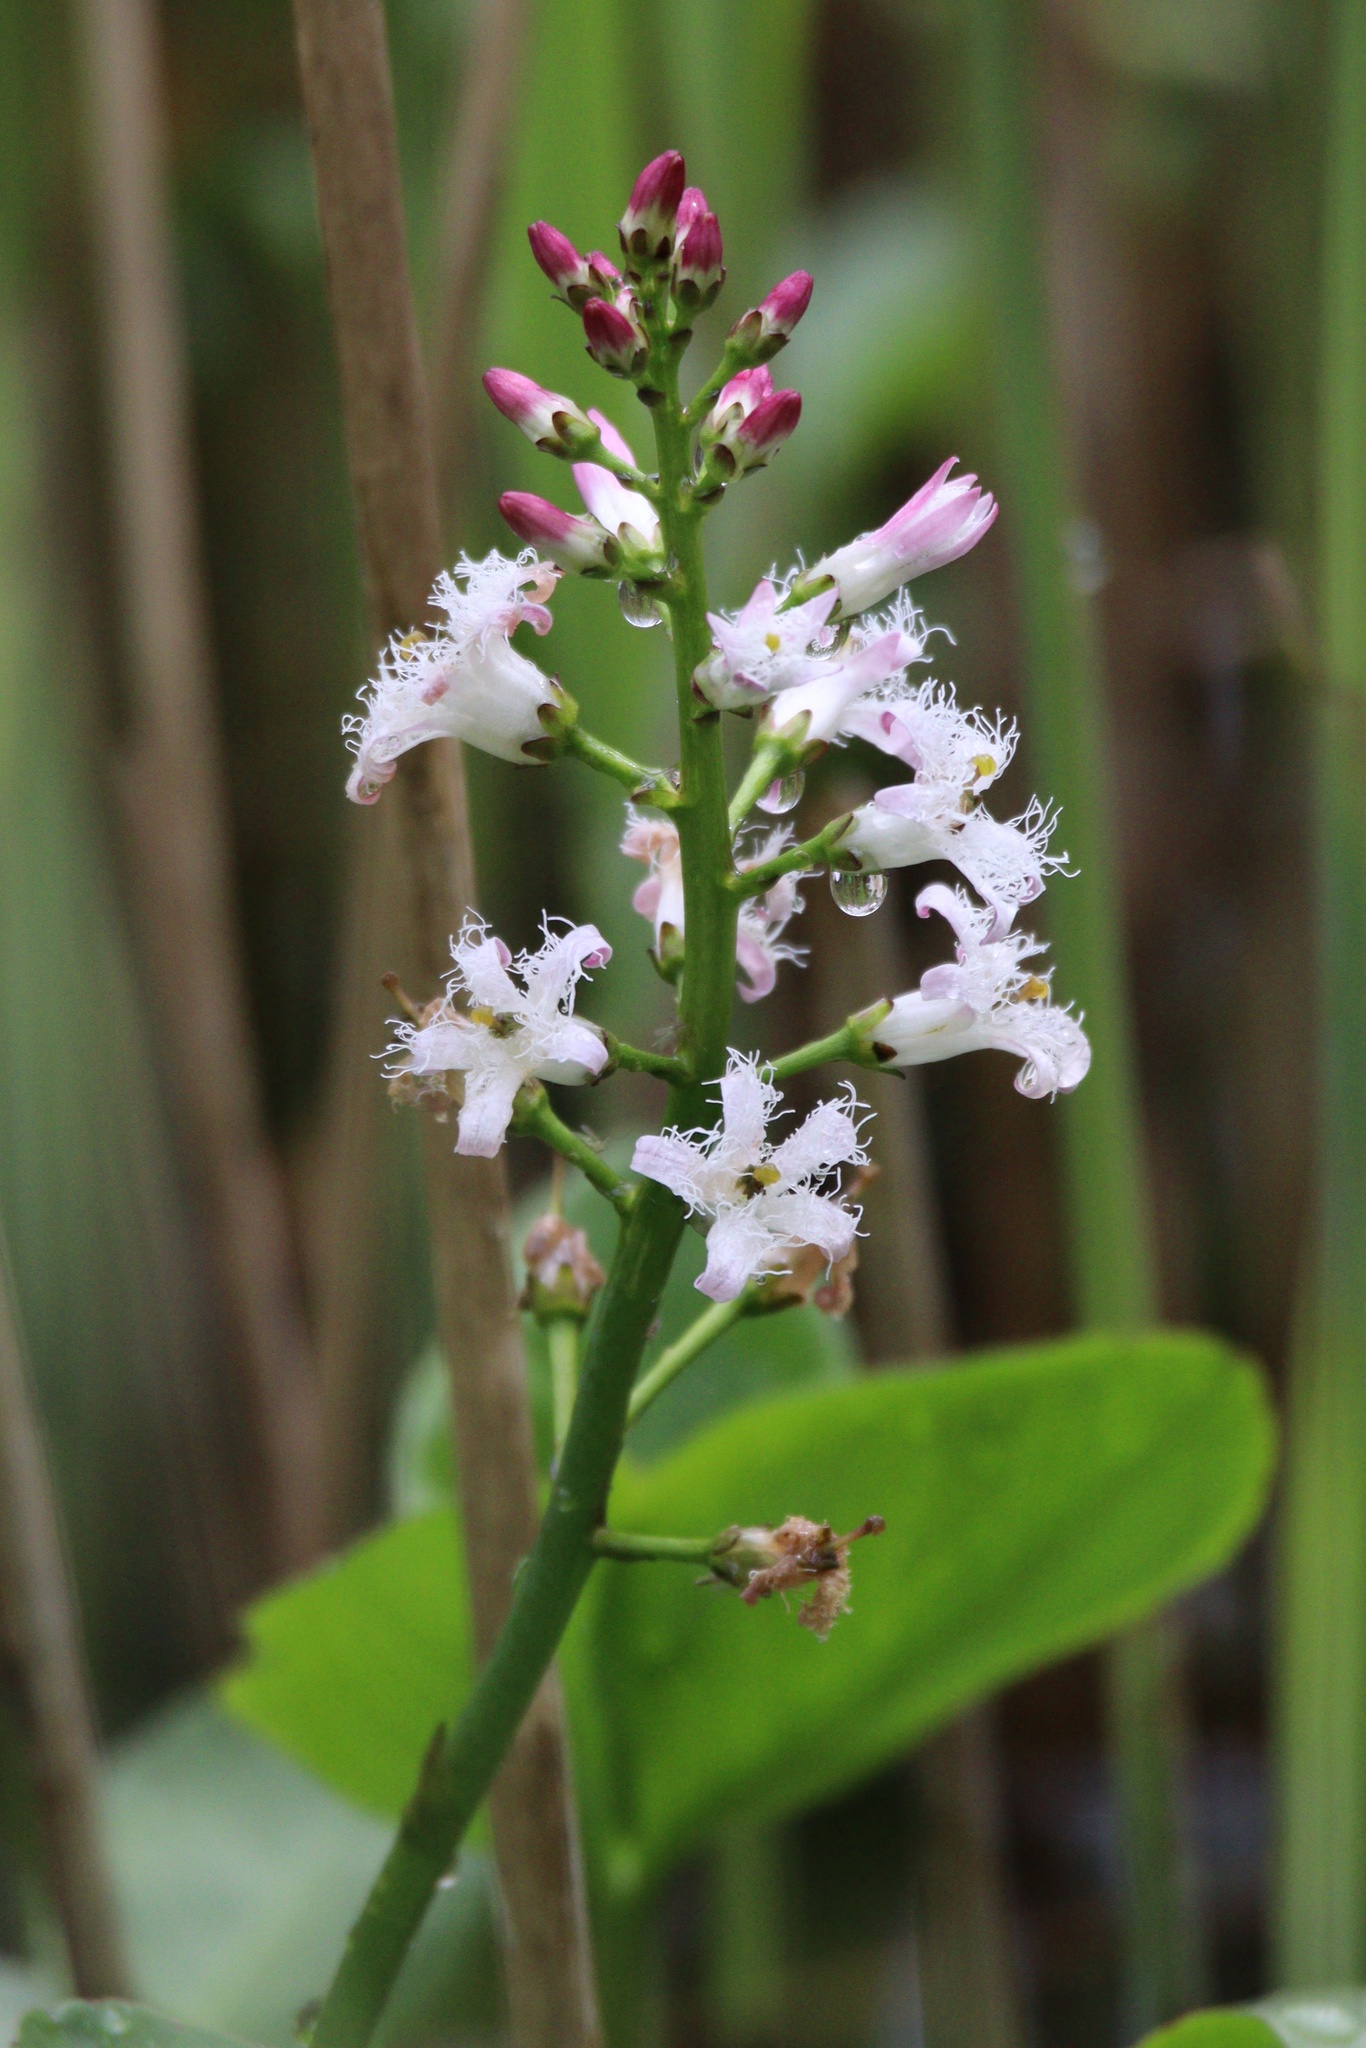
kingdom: Plantae
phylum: Tracheophyta
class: Magnoliopsida
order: Asterales
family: Menyanthaceae
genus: Menyanthes
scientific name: Menyanthes trifoliata
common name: Bogbean
